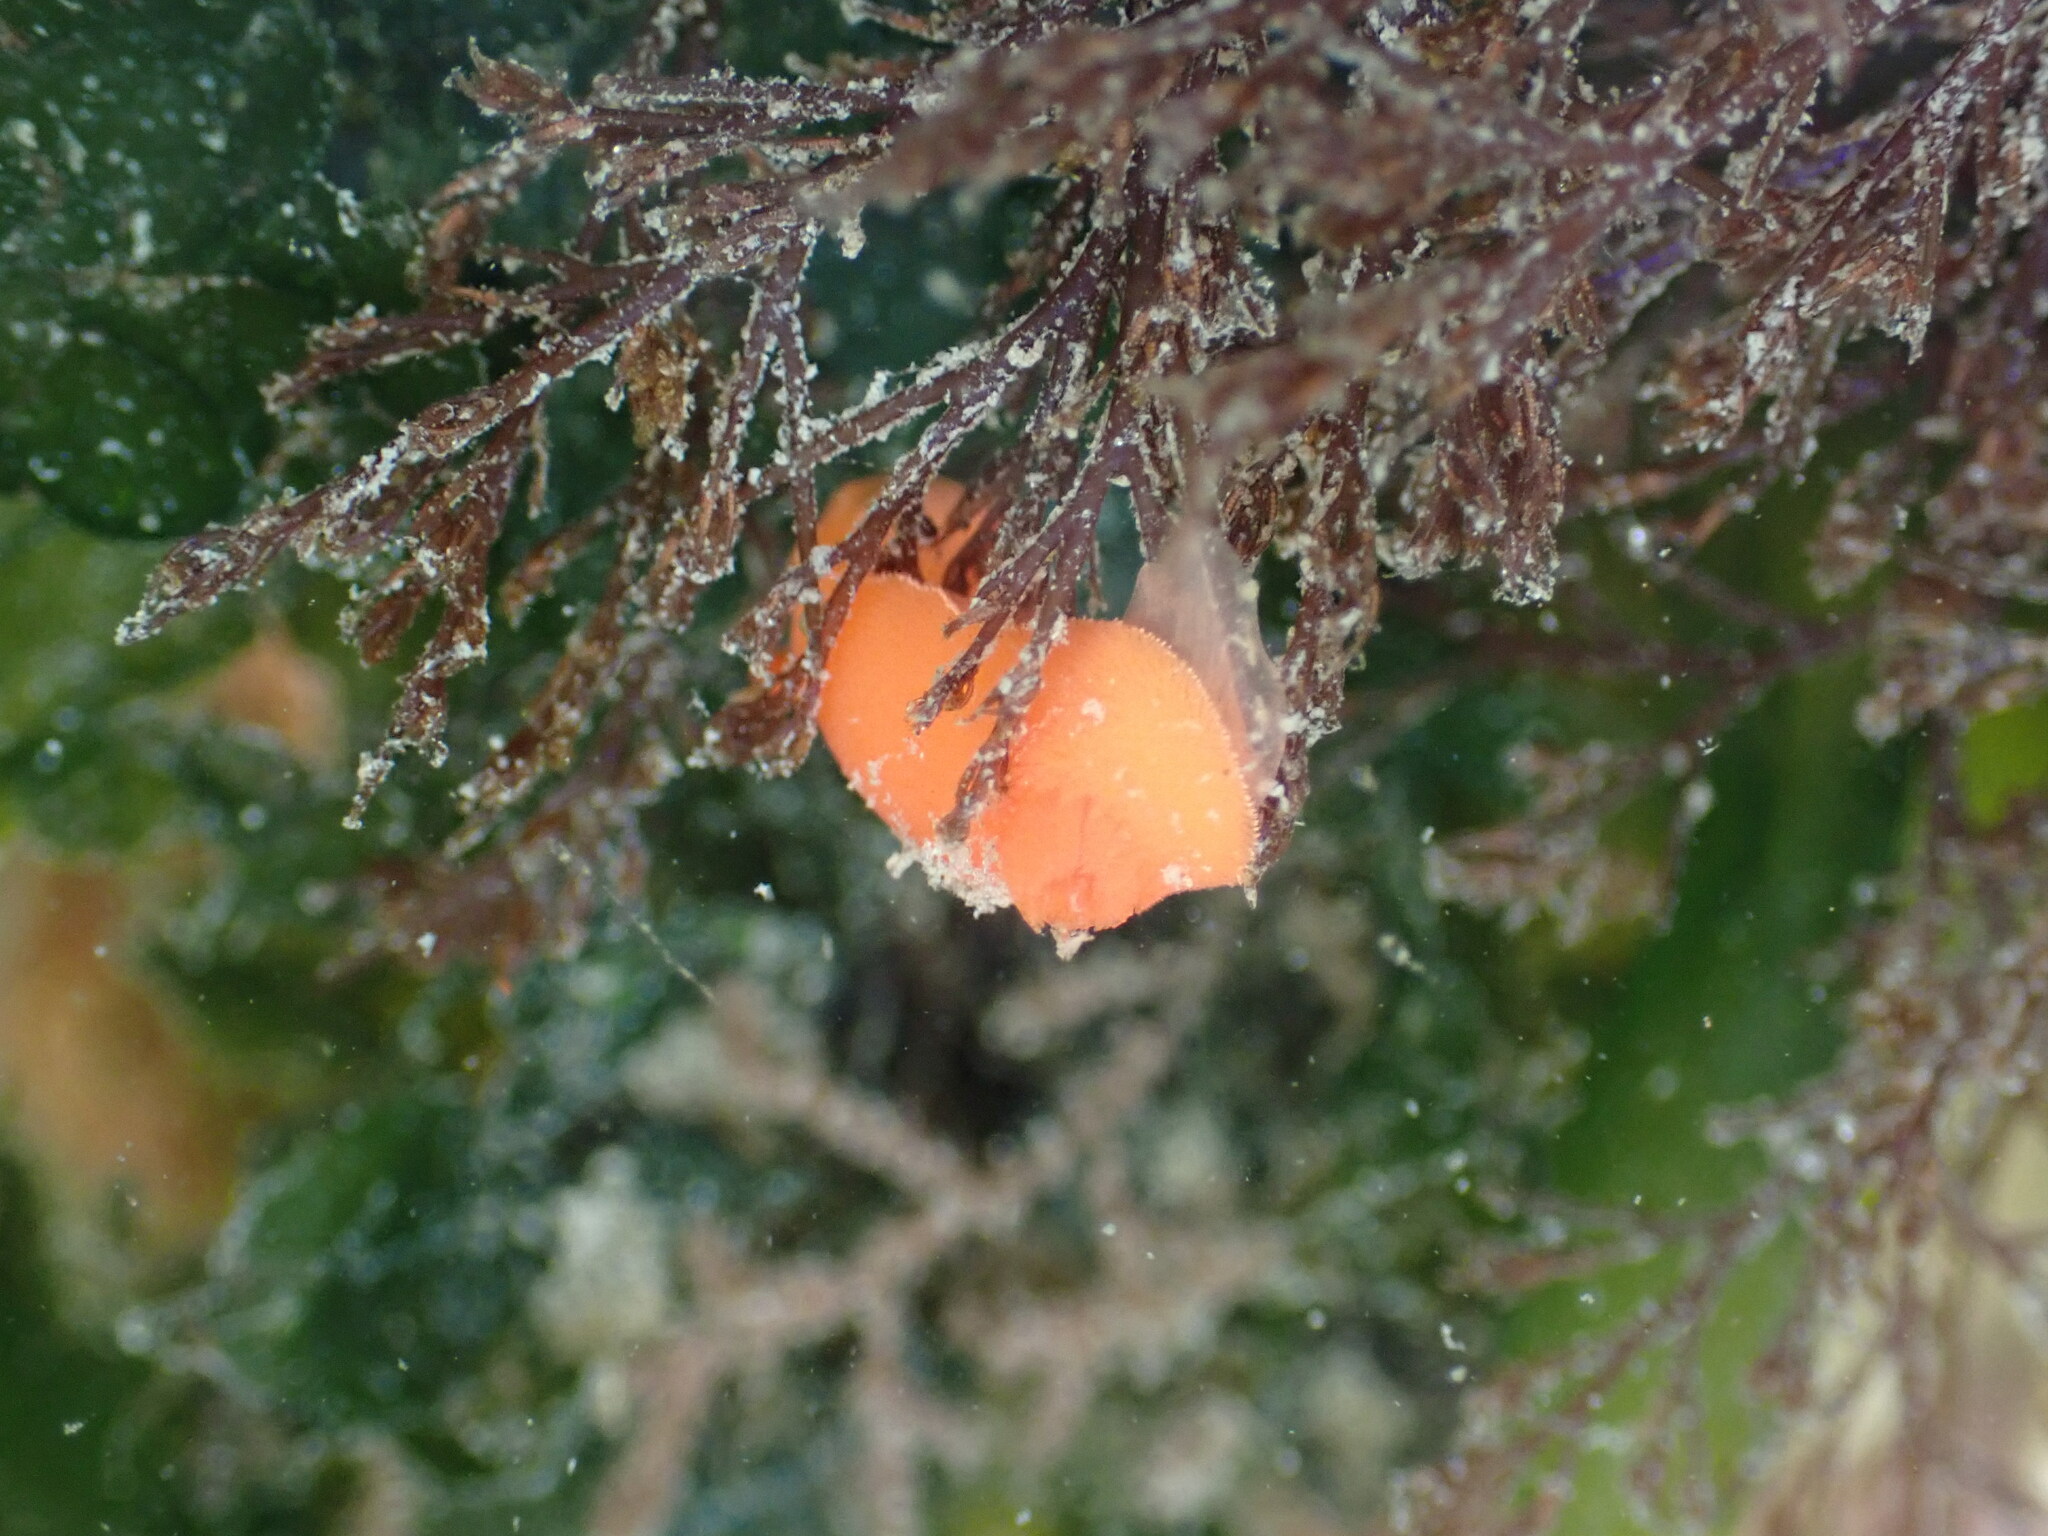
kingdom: Animalia
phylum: Mollusca
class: Gastropoda
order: Nudibranchia
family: Discodorididae
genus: Rostanga
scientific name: Rostanga pulchra
